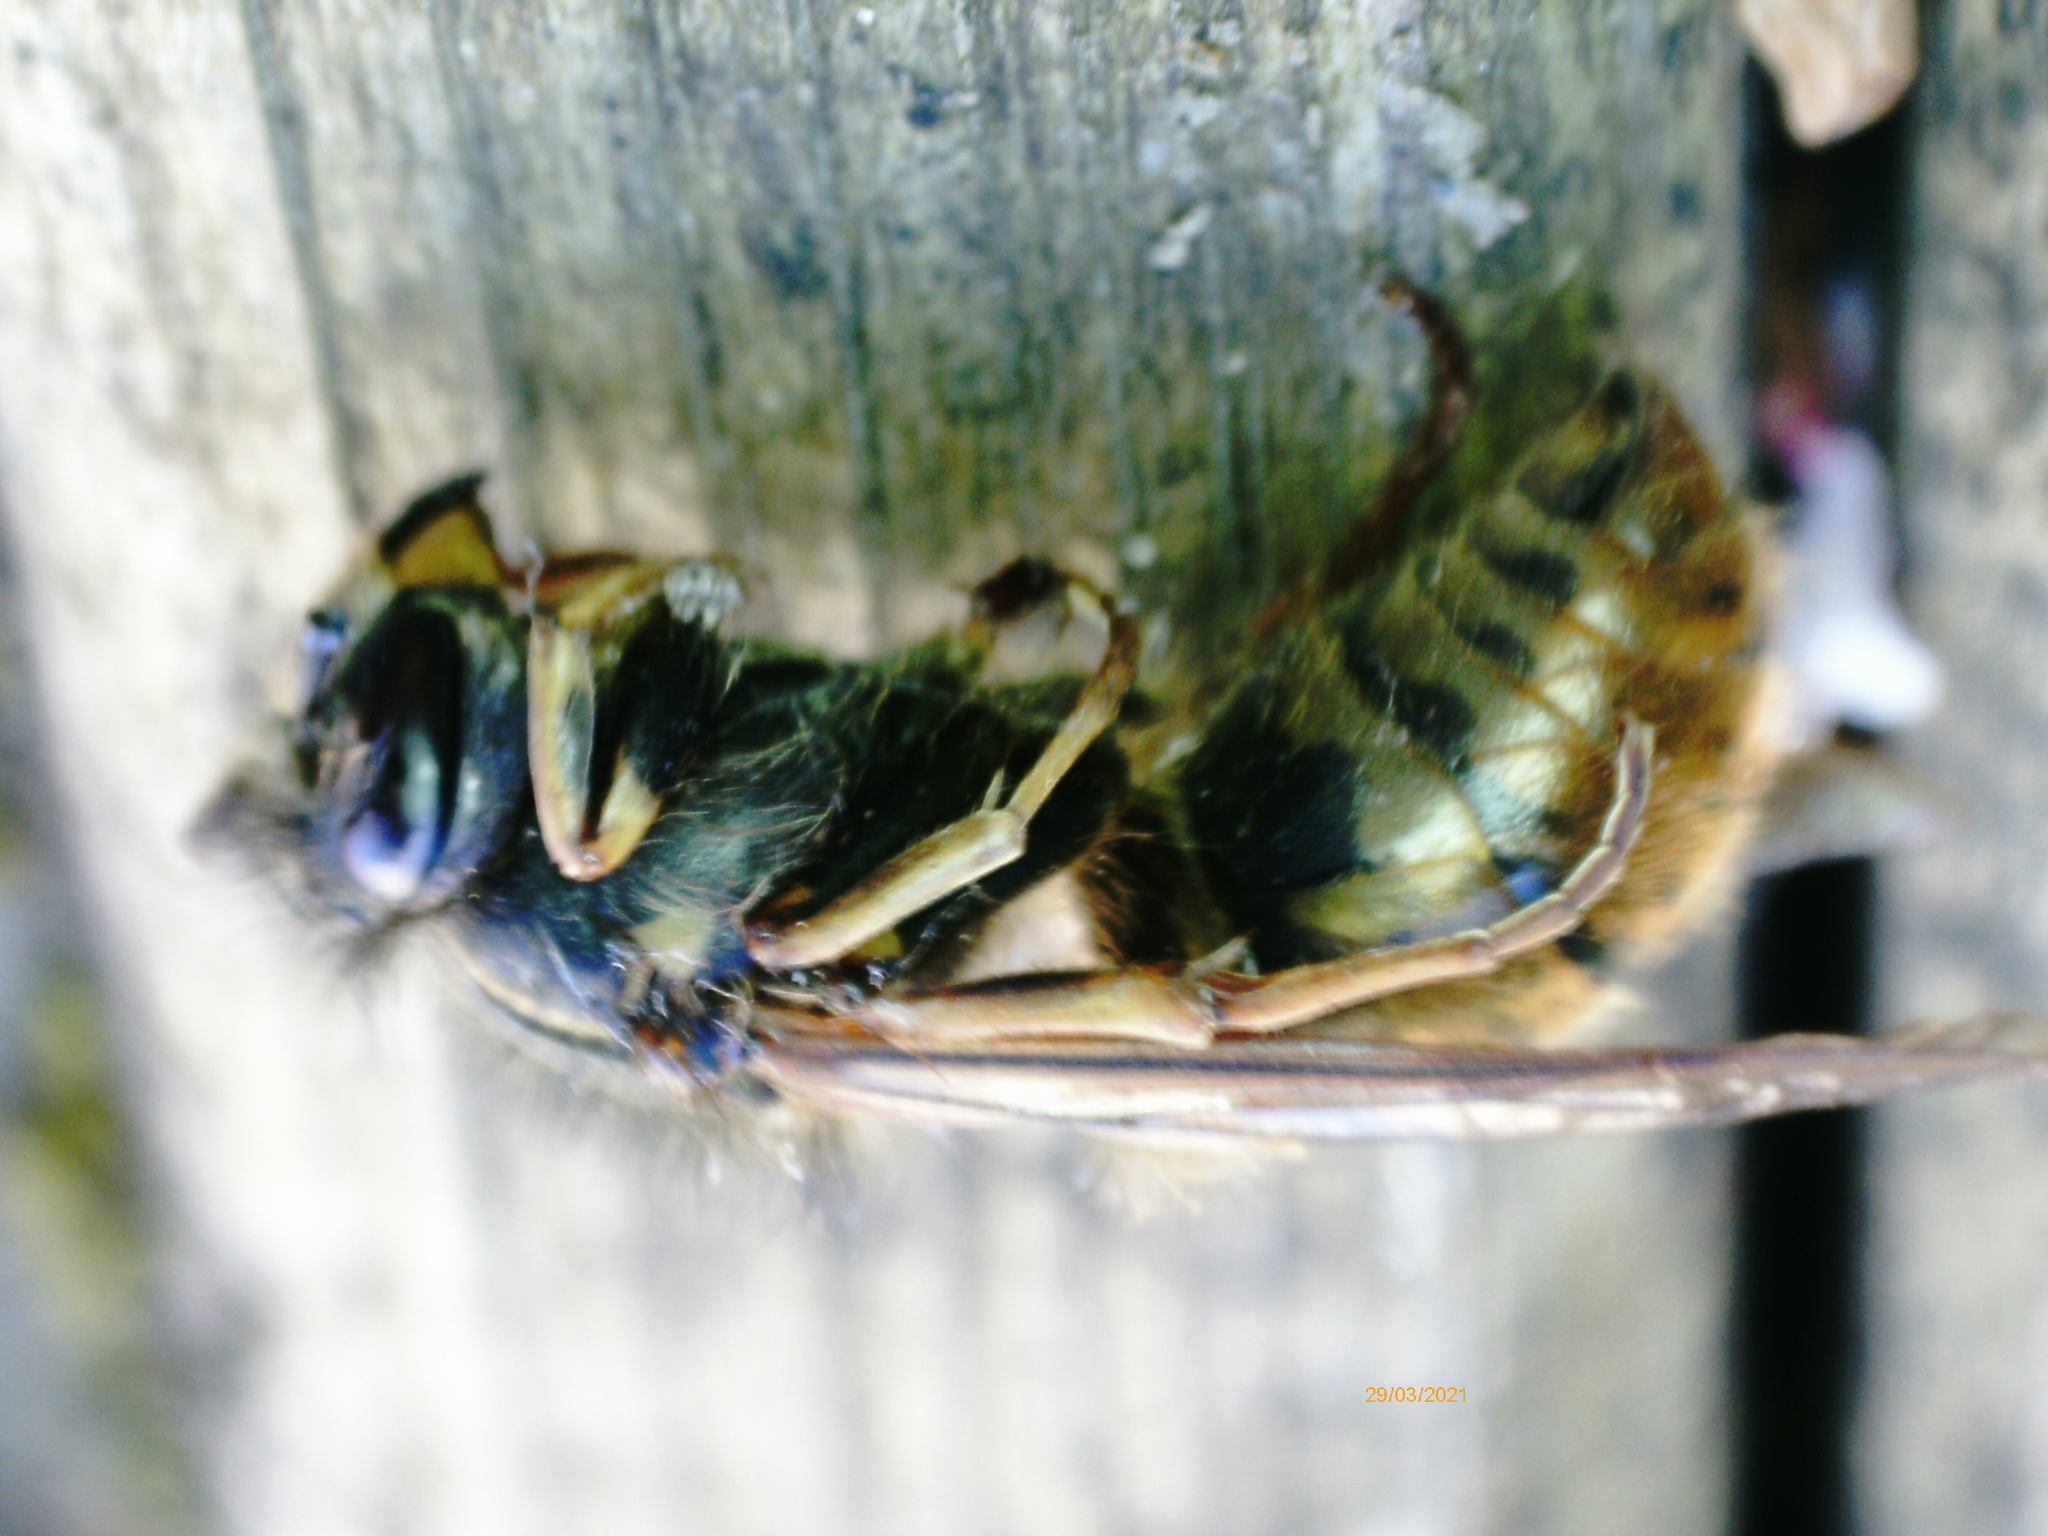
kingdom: Animalia
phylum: Arthropoda
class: Insecta
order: Hymenoptera
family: Vespidae
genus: Vespula
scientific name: Vespula vulgaris
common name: Common wasp
